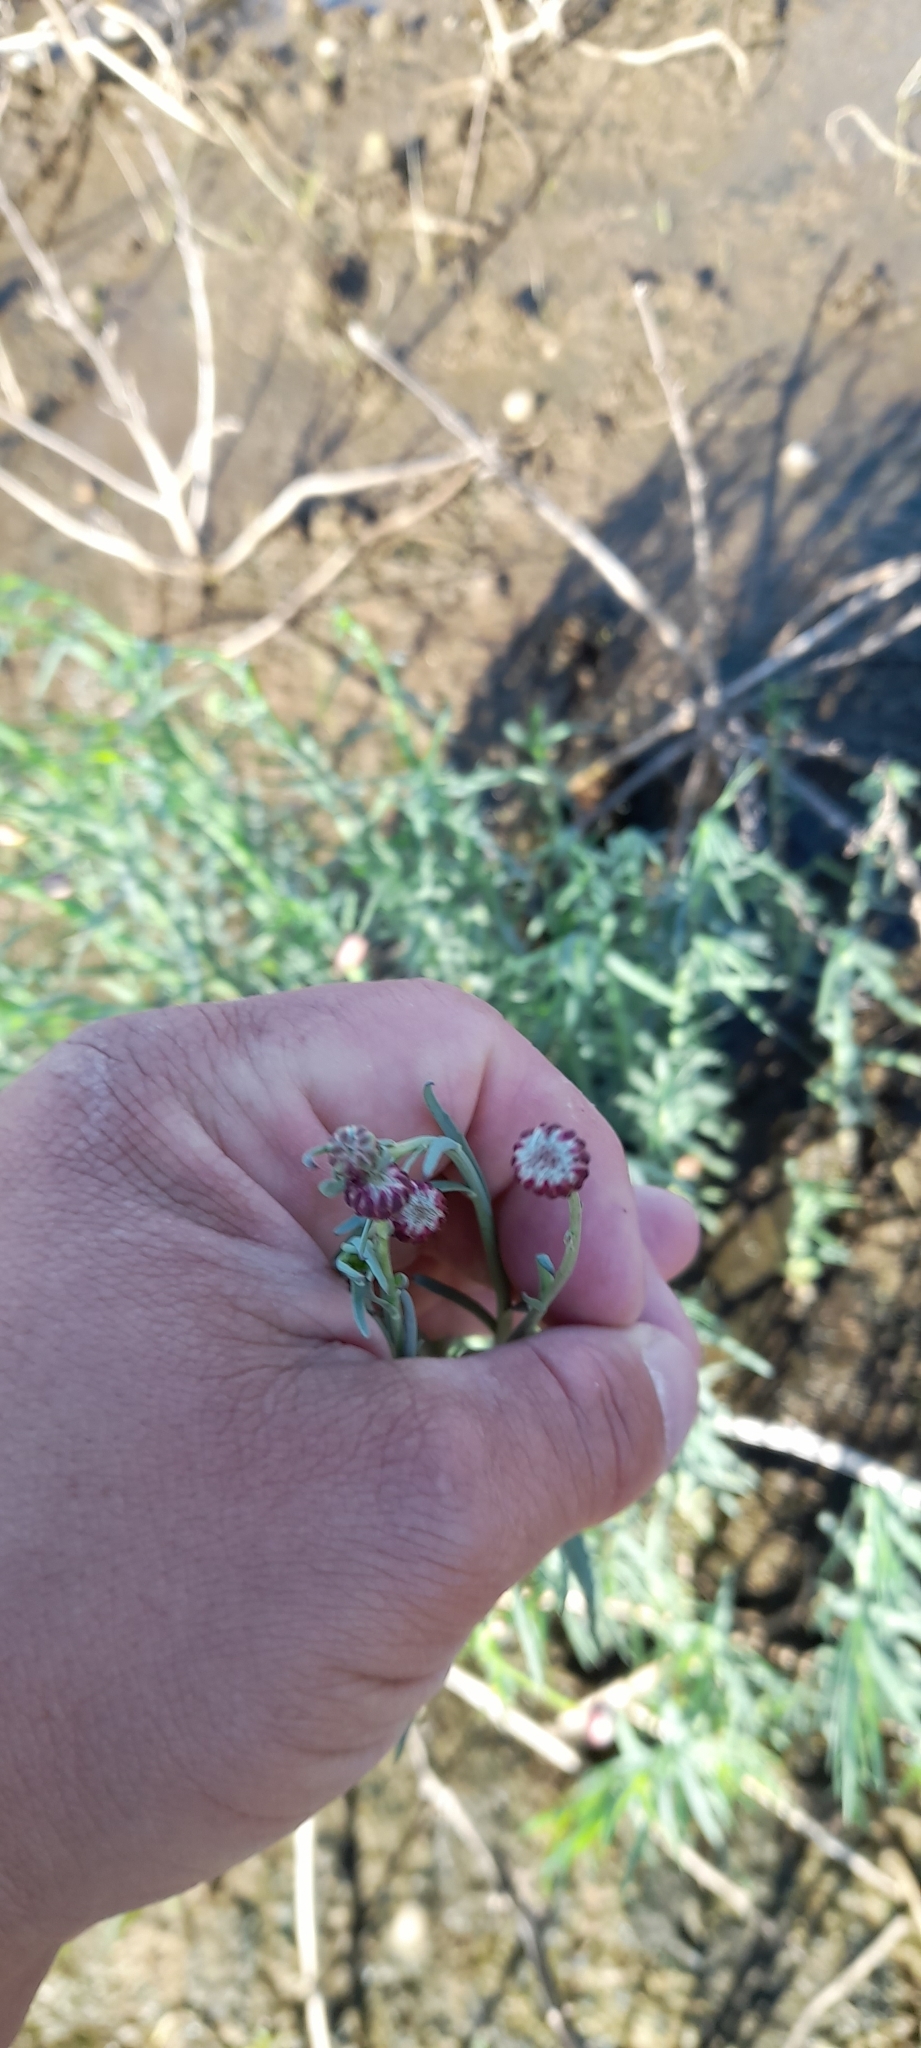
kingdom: Plantae
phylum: Tracheophyta
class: Magnoliopsida
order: Asterales
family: Asteraceae
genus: Baccharis
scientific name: Baccharis juncea
